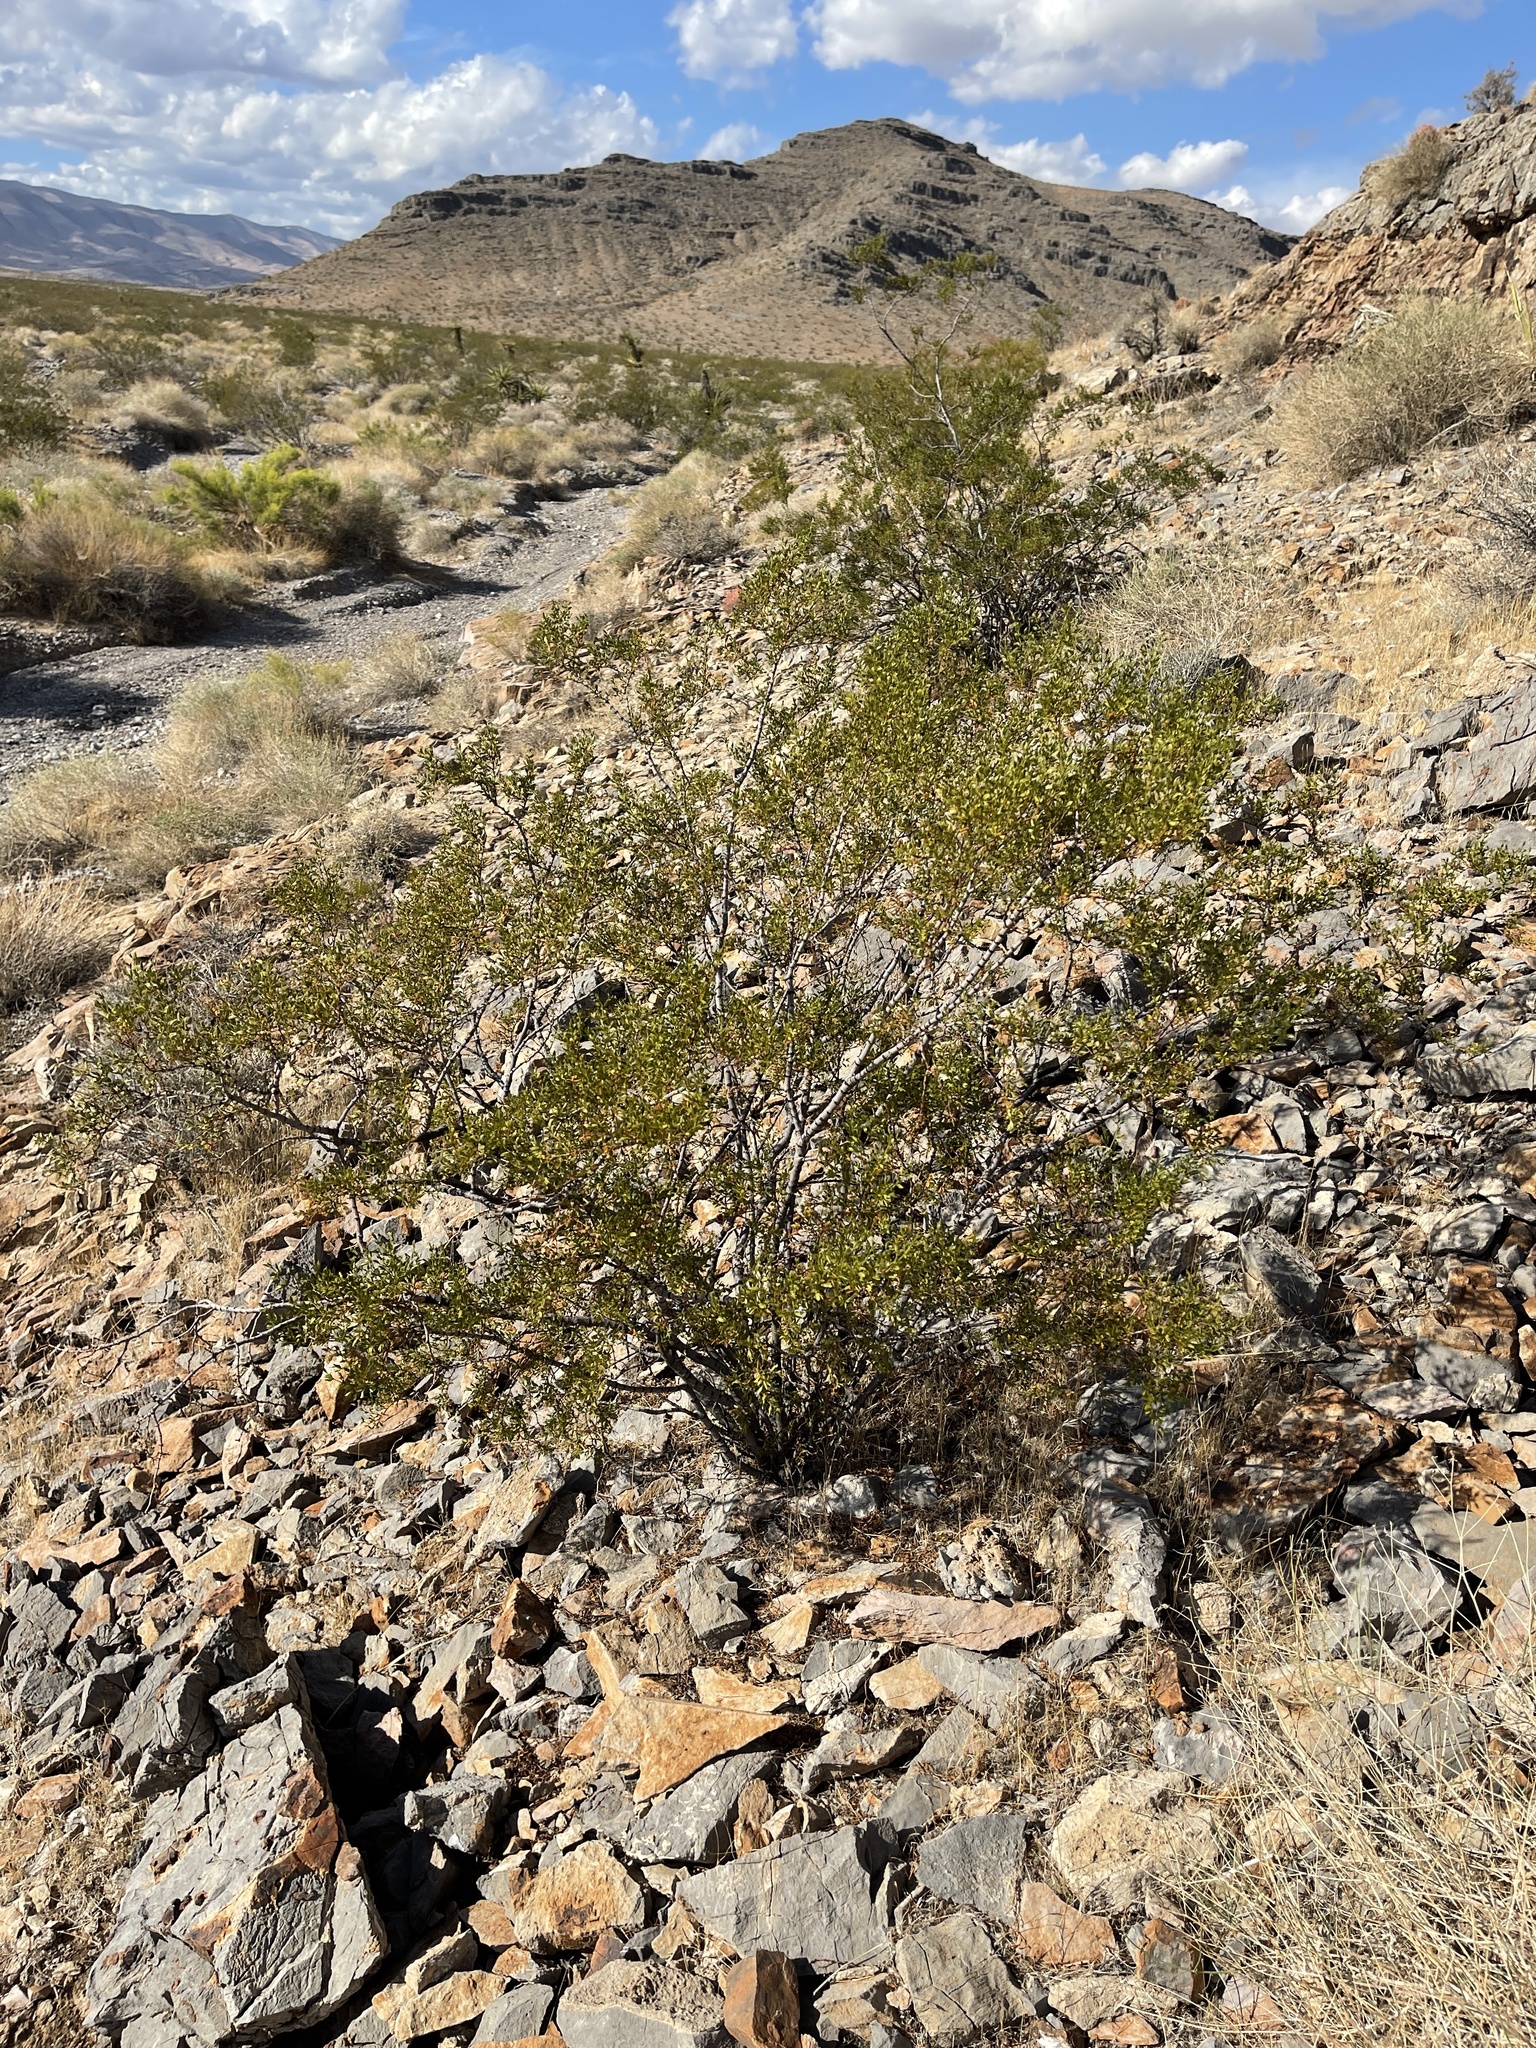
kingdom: Plantae
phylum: Tracheophyta
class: Magnoliopsida
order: Zygophyllales
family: Zygophyllaceae
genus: Larrea
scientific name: Larrea tridentata
